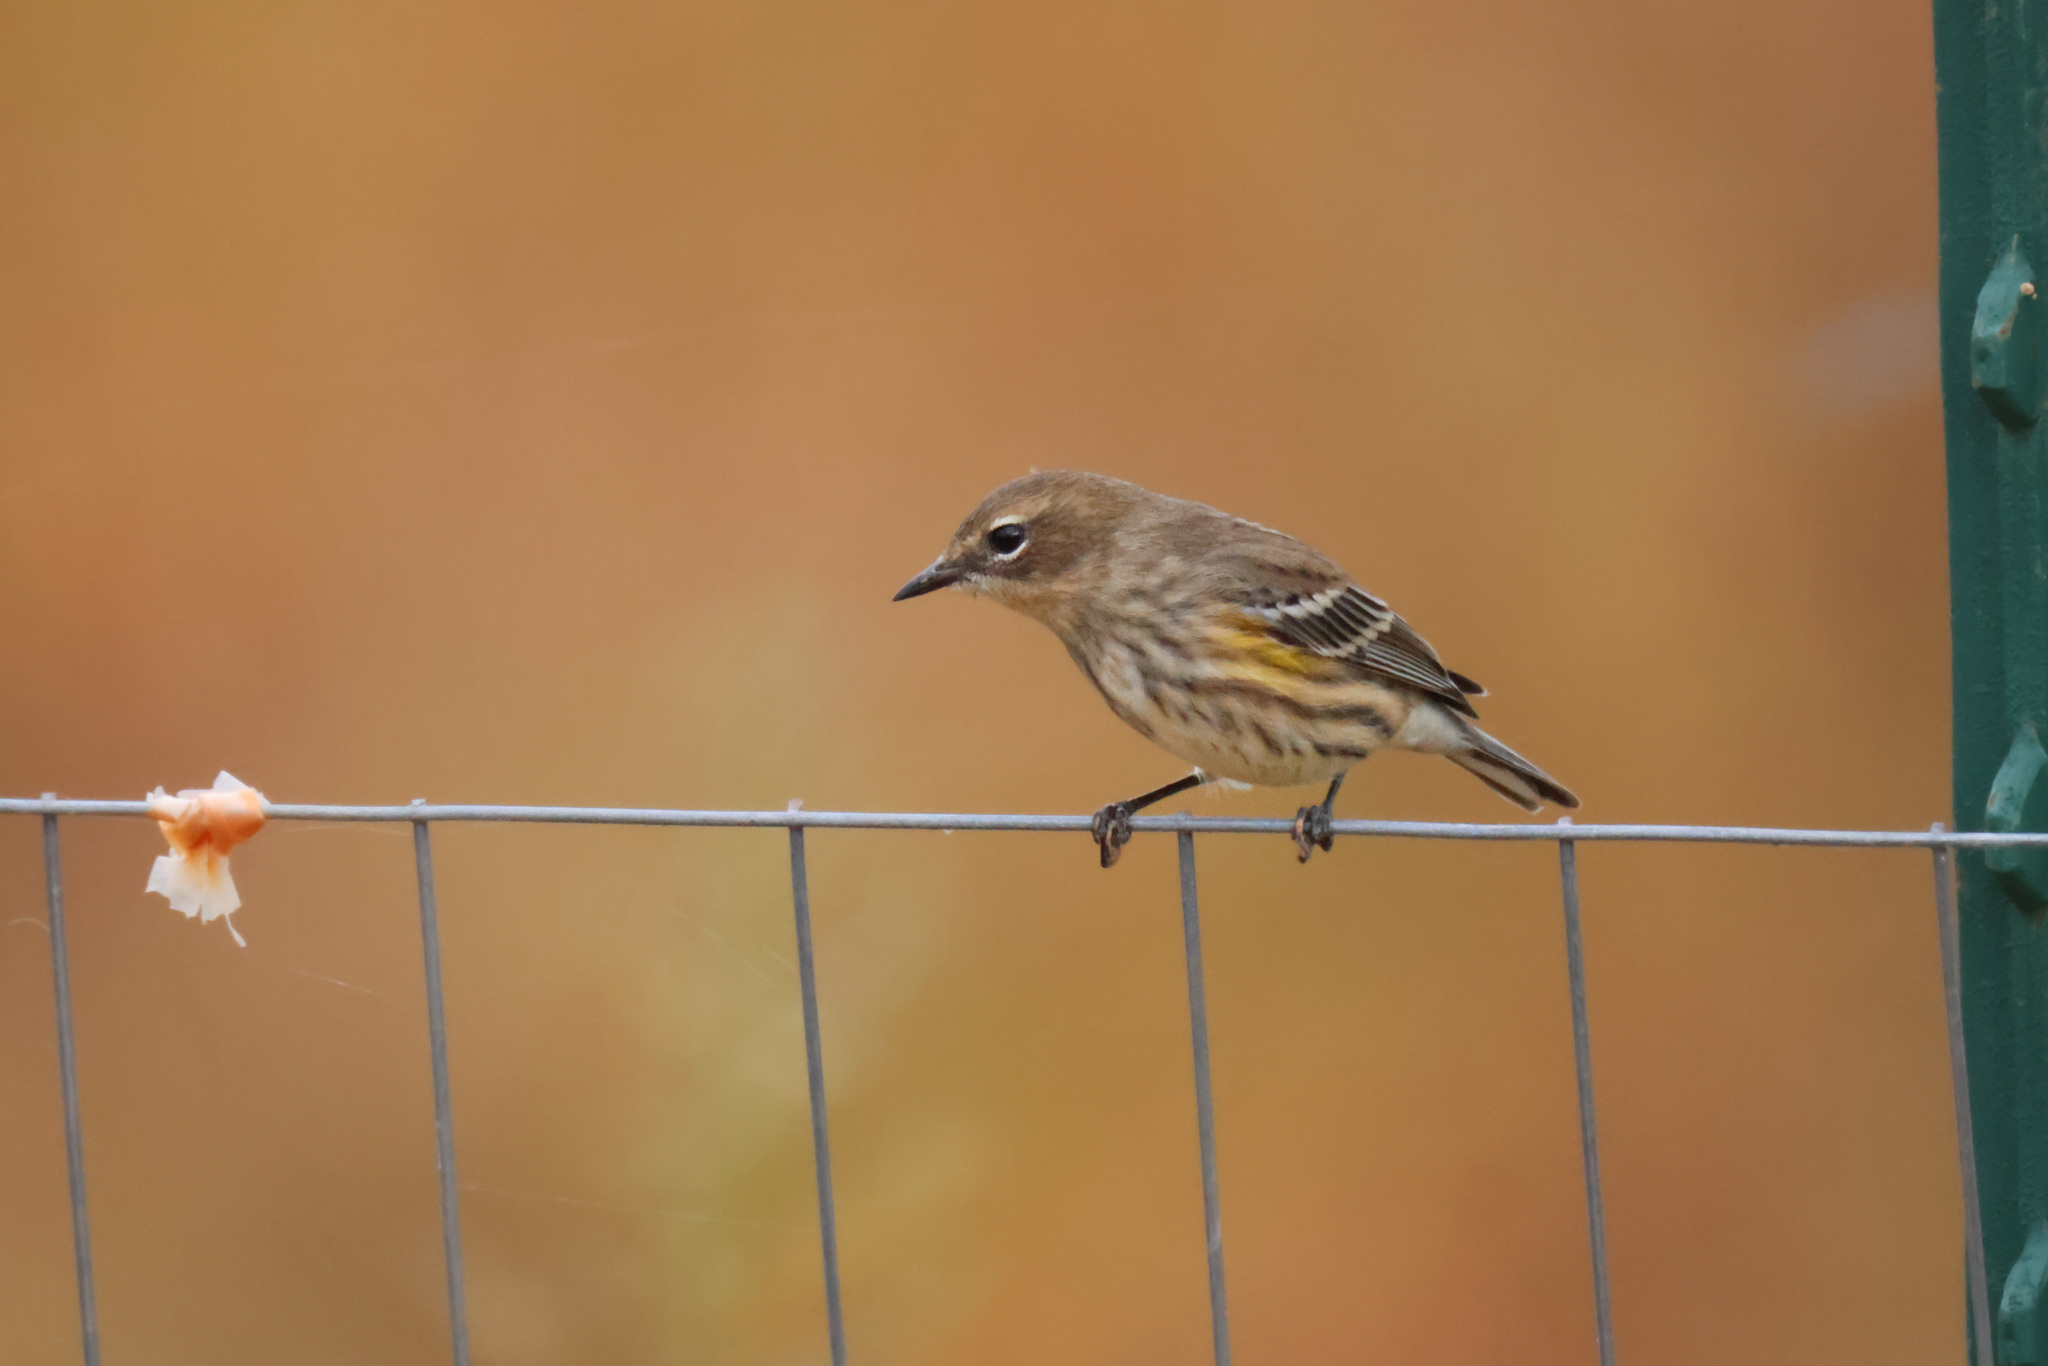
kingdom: Animalia
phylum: Chordata
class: Aves
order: Passeriformes
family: Parulidae
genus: Setophaga
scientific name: Setophaga coronata
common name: Myrtle warbler
